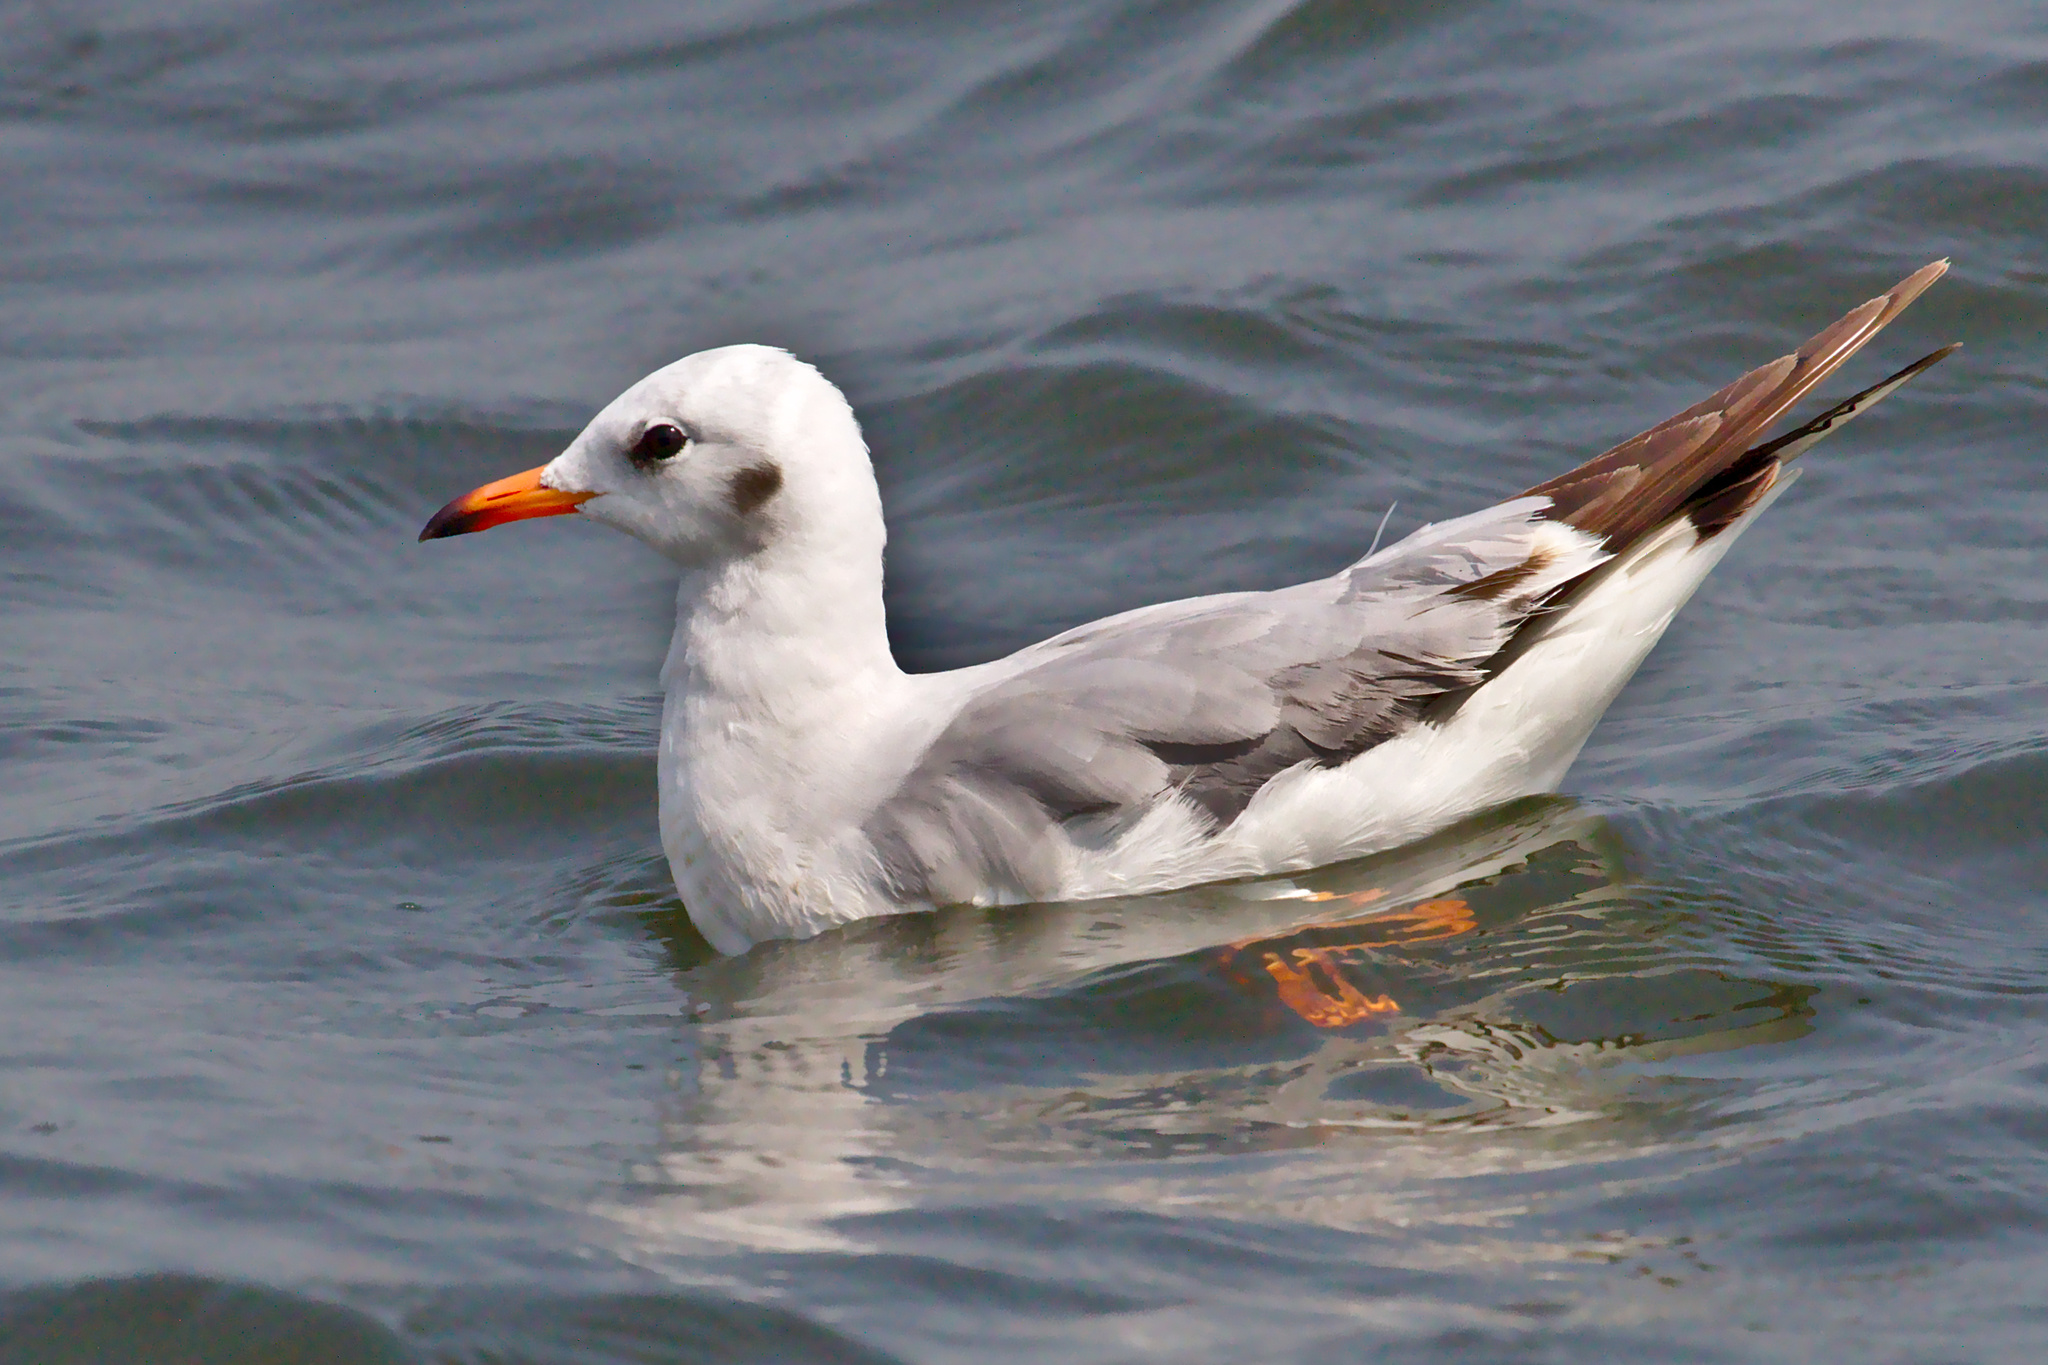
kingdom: Animalia
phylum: Chordata
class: Aves
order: Charadriiformes
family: Laridae
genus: Chroicocephalus
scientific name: Chroicocephalus brunnicephalus
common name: Brown-headed gull
